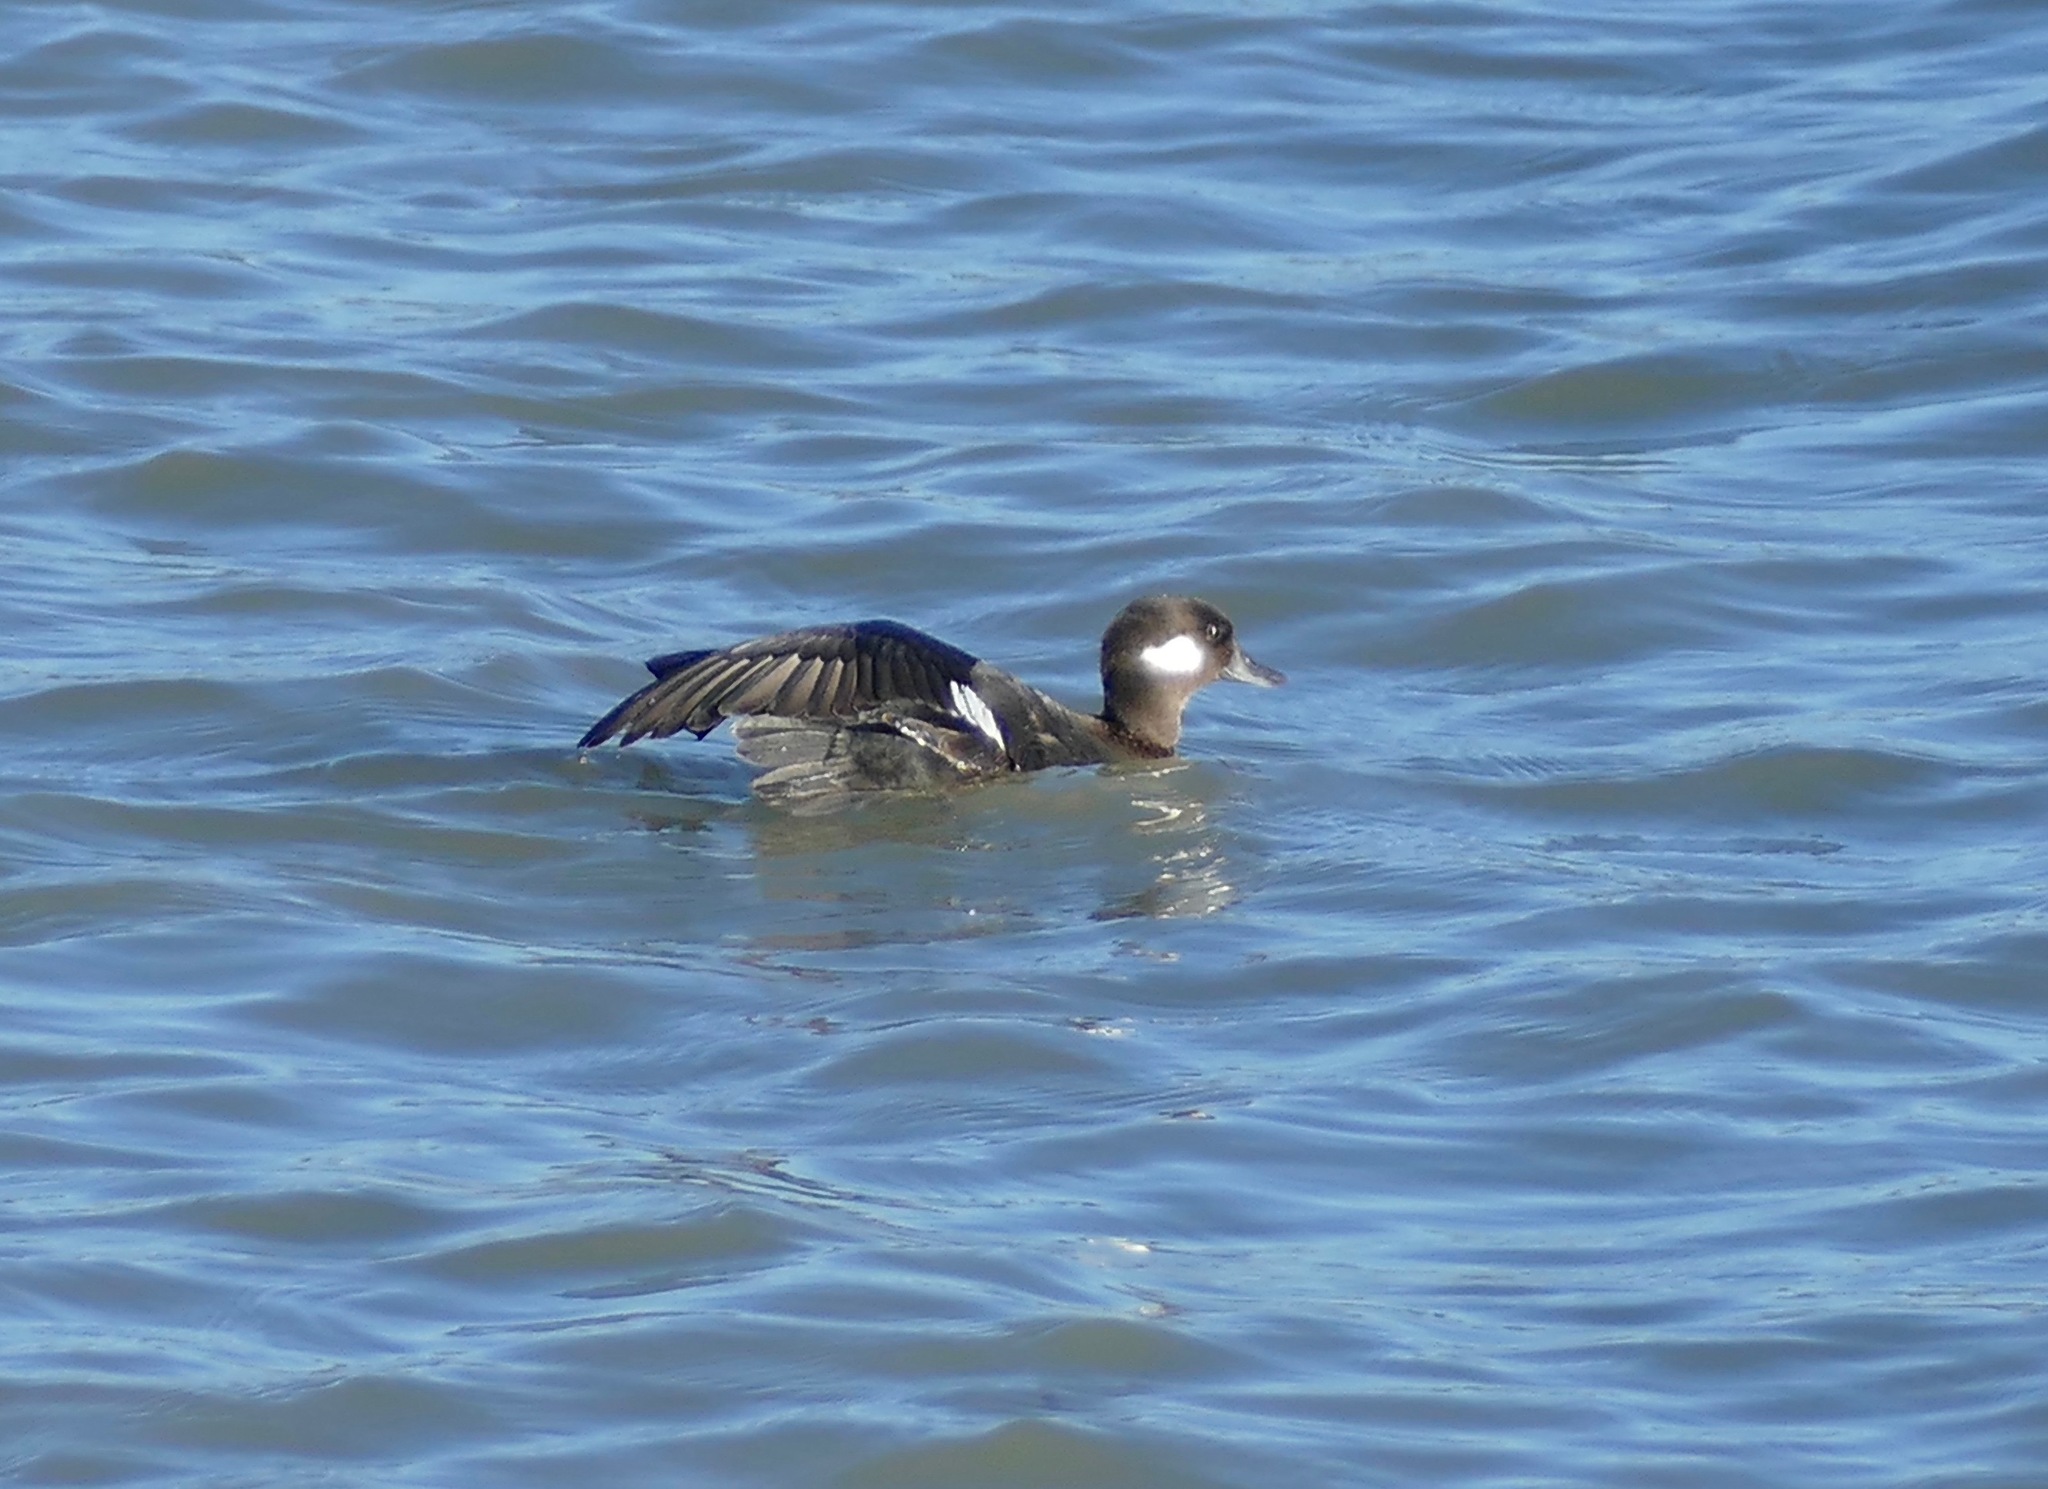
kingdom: Animalia
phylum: Chordata
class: Aves
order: Anseriformes
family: Anatidae
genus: Bucephala
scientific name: Bucephala albeola
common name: Bufflehead
